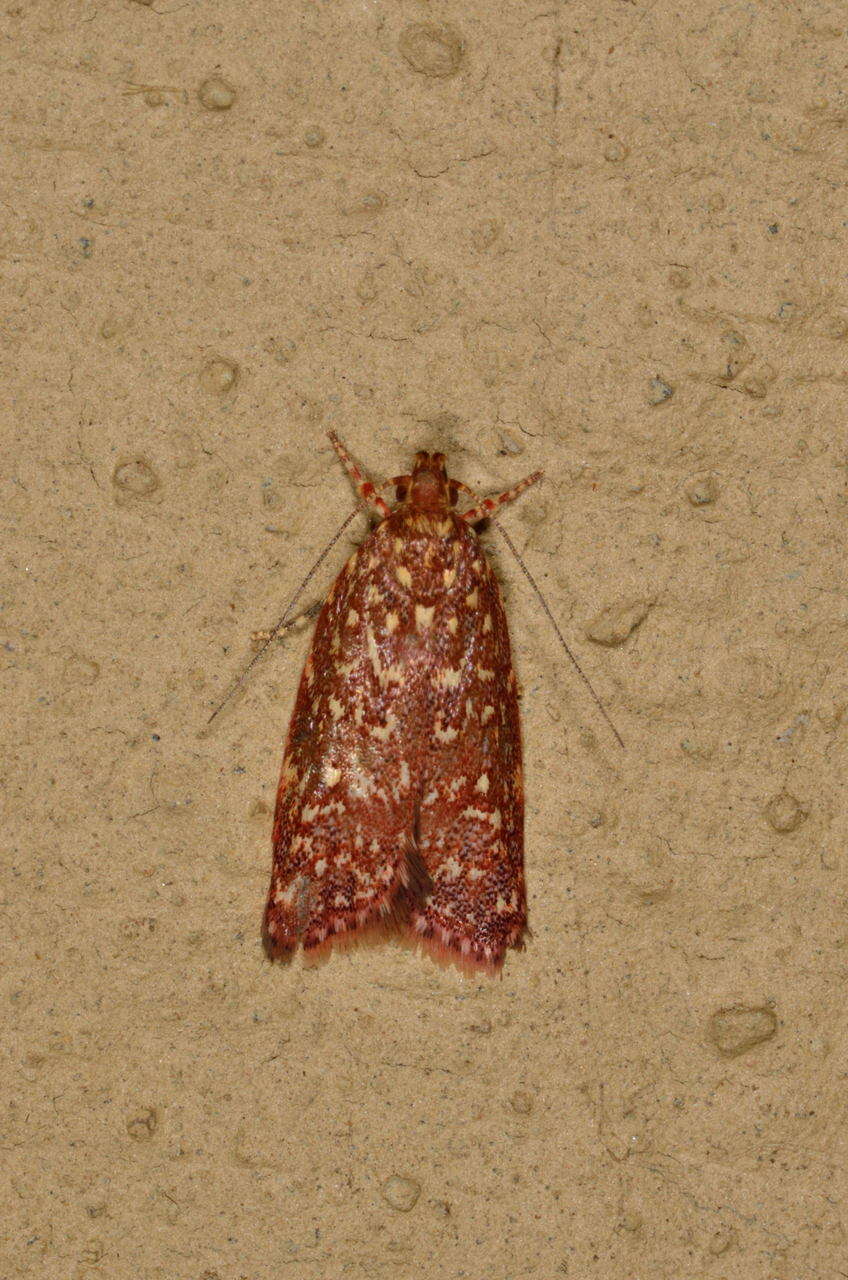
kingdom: Animalia
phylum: Arthropoda
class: Insecta
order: Lepidoptera
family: Oecophoridae
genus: Syringoseca
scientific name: Syringoseca rhodoxantha
